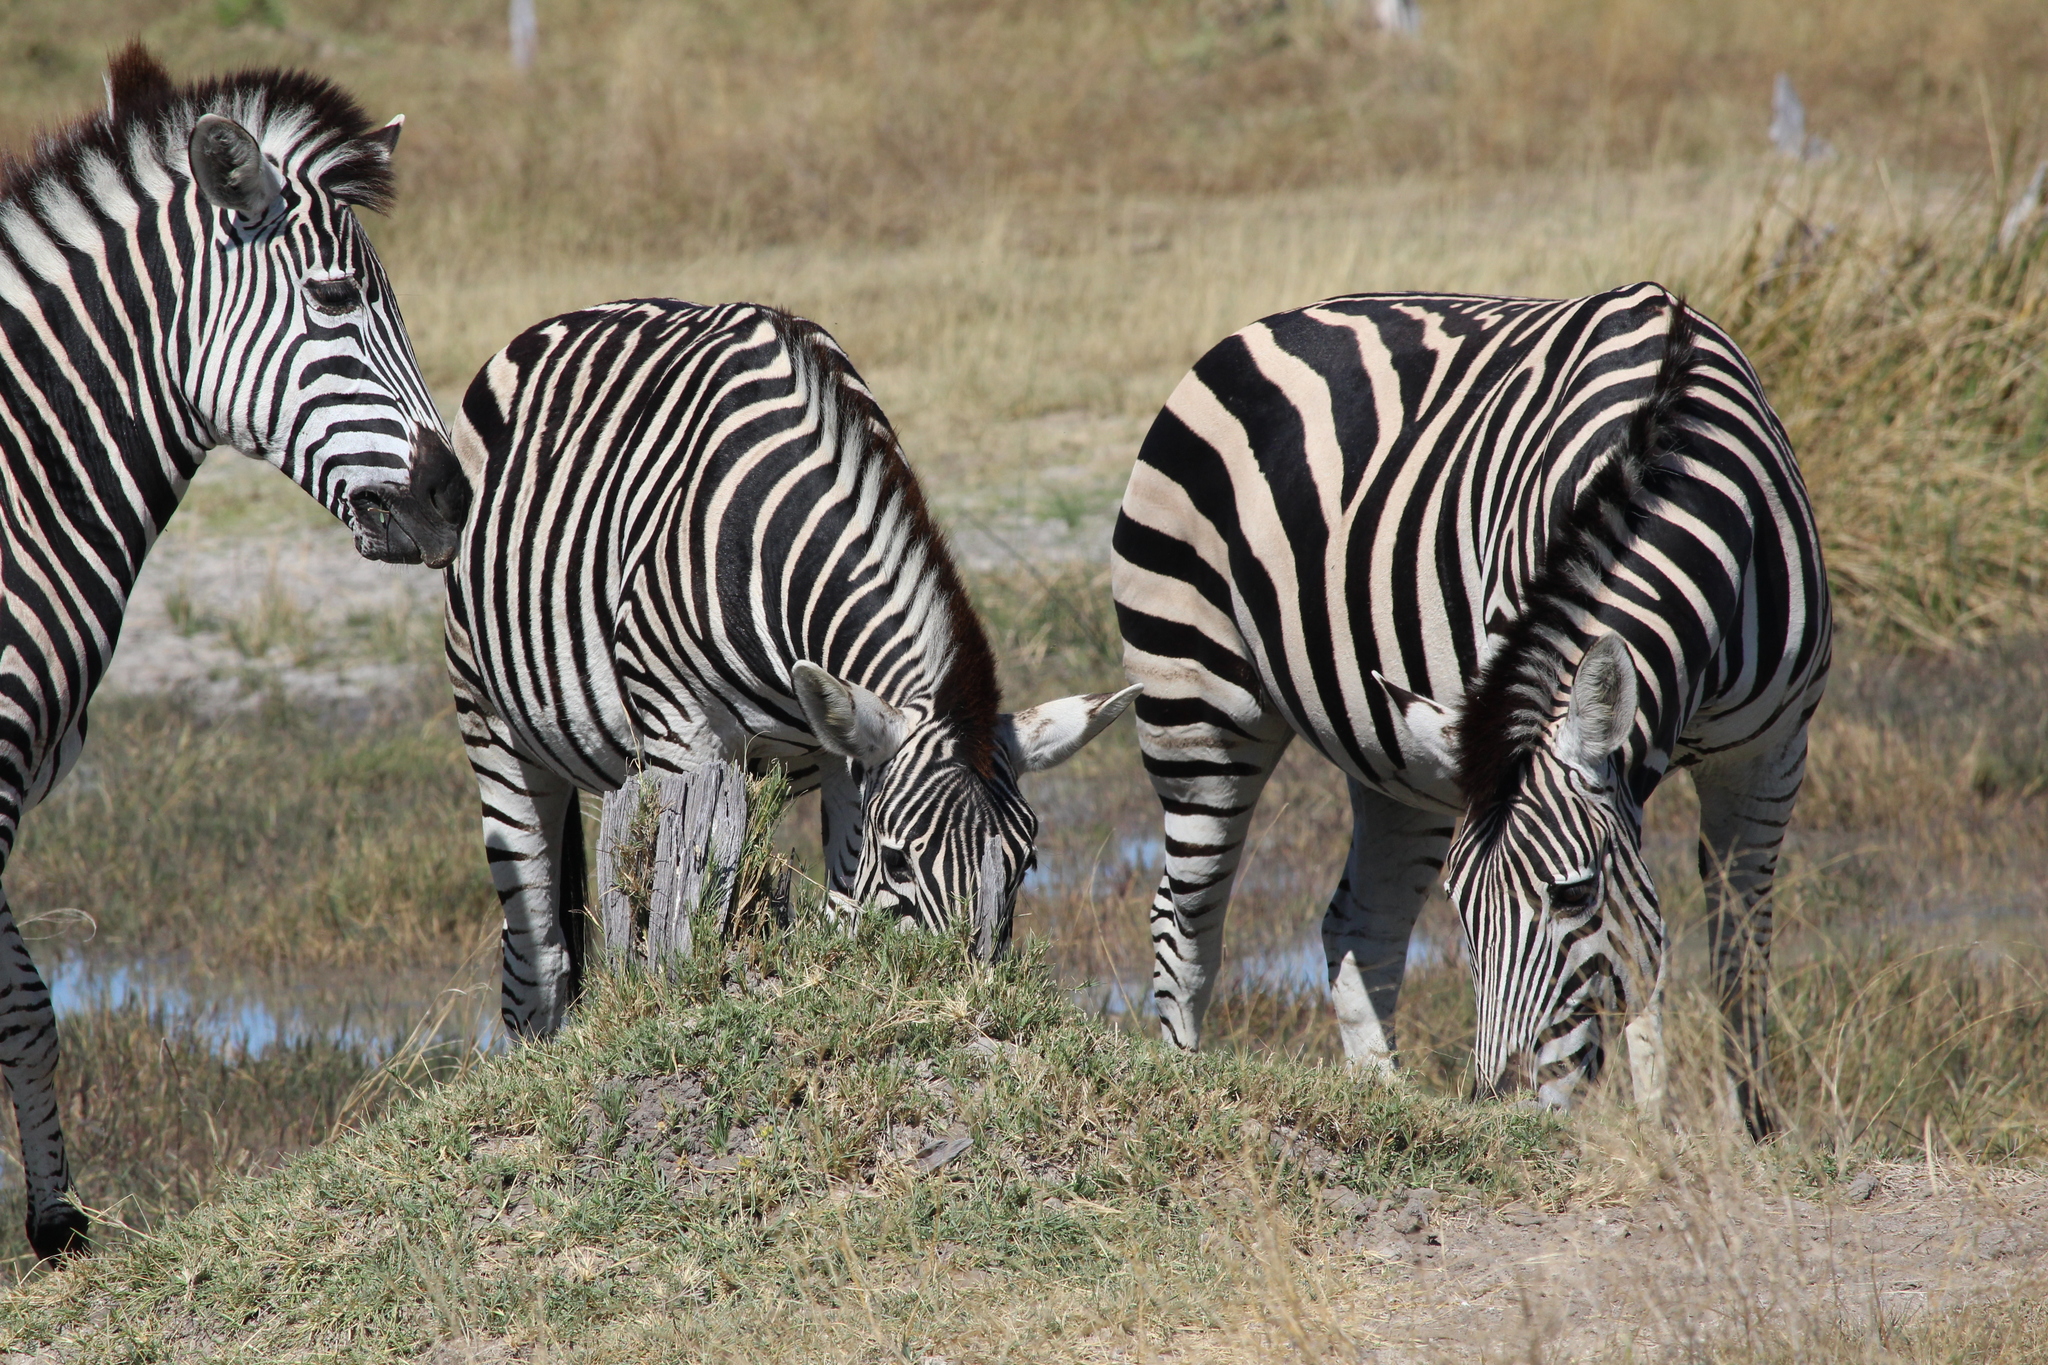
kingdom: Animalia
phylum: Chordata
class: Mammalia
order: Perissodactyla
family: Equidae
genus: Equus
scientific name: Equus quagga
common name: Plains zebra
